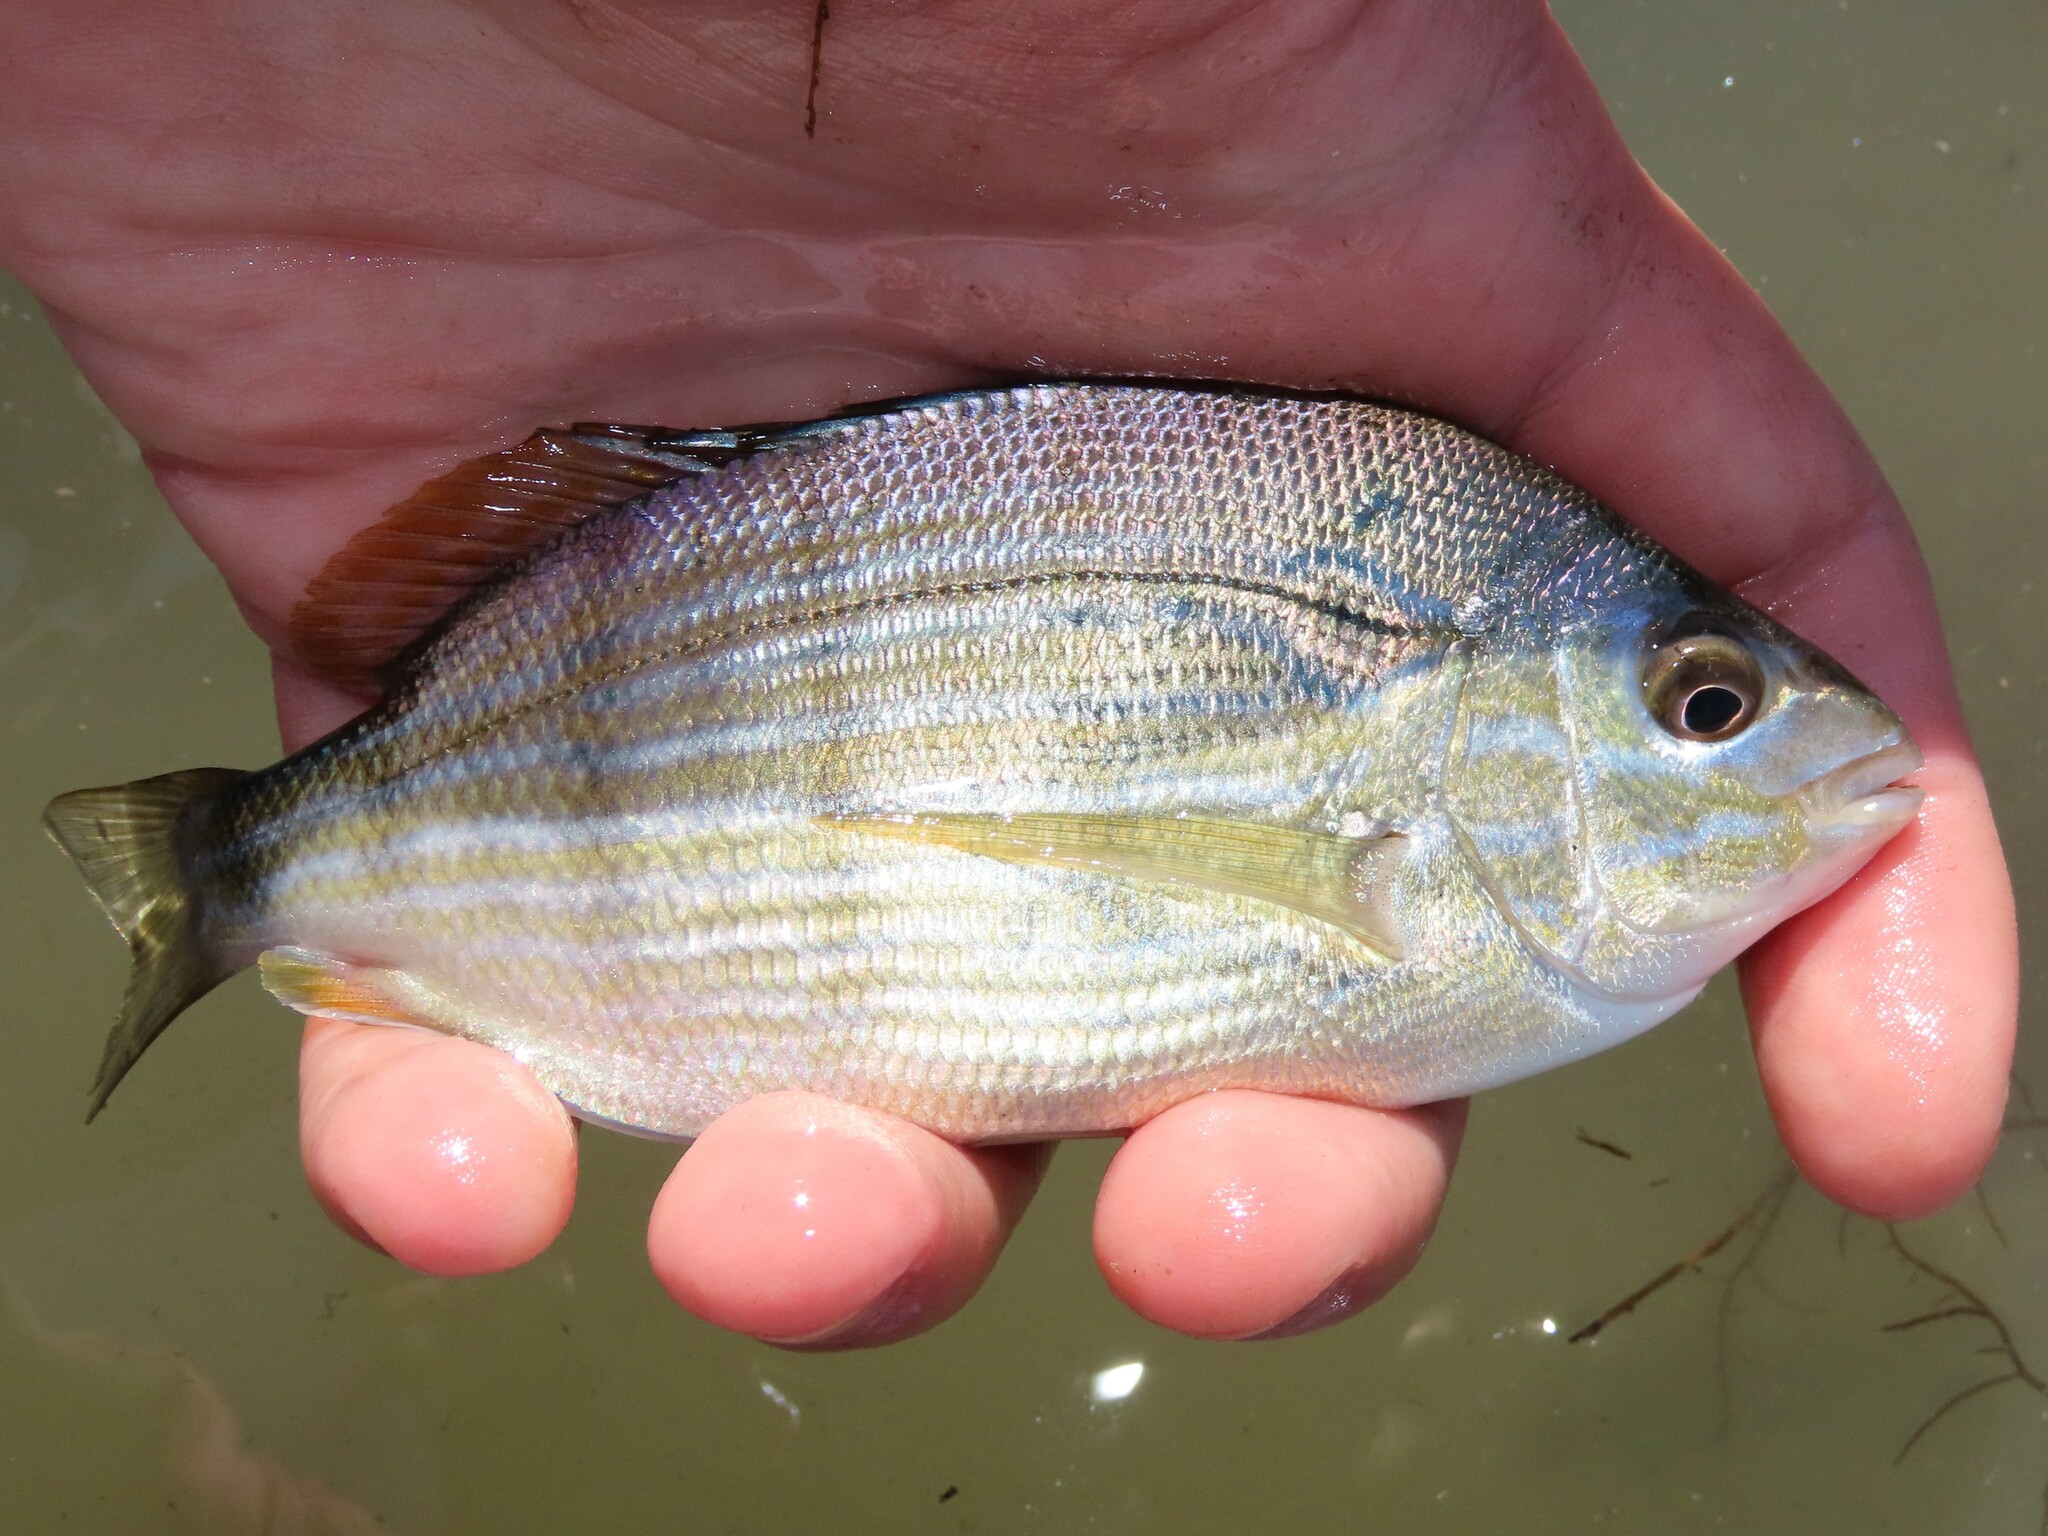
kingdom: Animalia
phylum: Chordata
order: Perciformes
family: Sparidae
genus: Lagodon
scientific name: Lagodon rhomboides
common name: Pinfish
